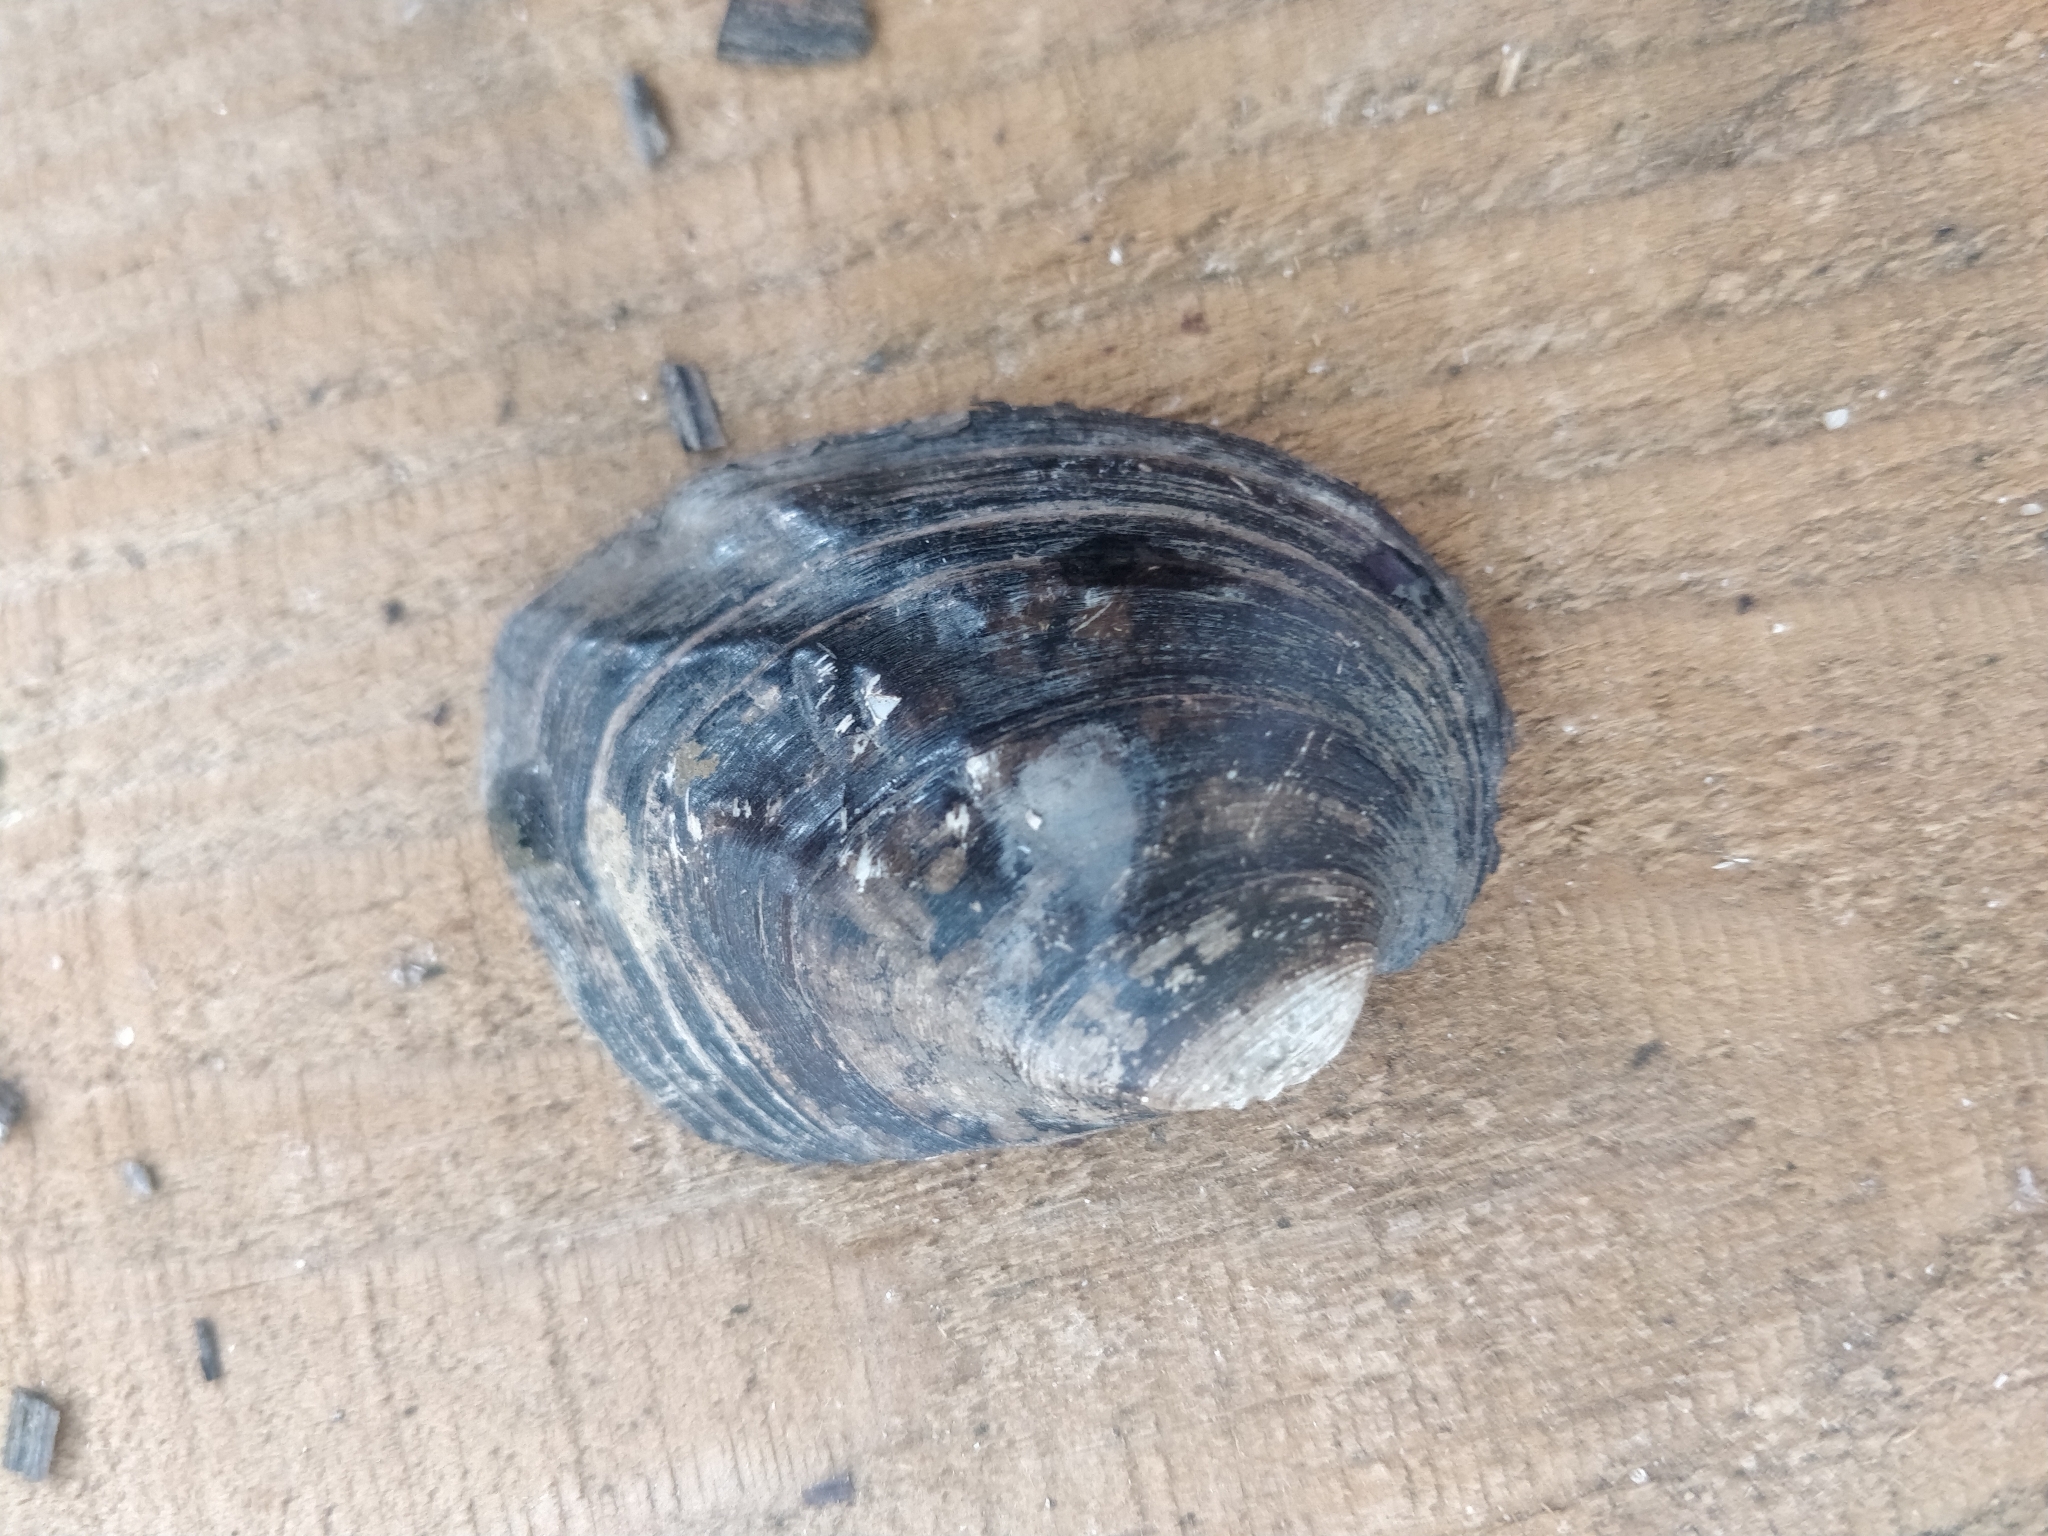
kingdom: Animalia
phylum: Mollusca
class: Bivalvia
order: Unionida
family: Unionidae
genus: Amblema
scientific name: Amblema plicata
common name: Threeridge
